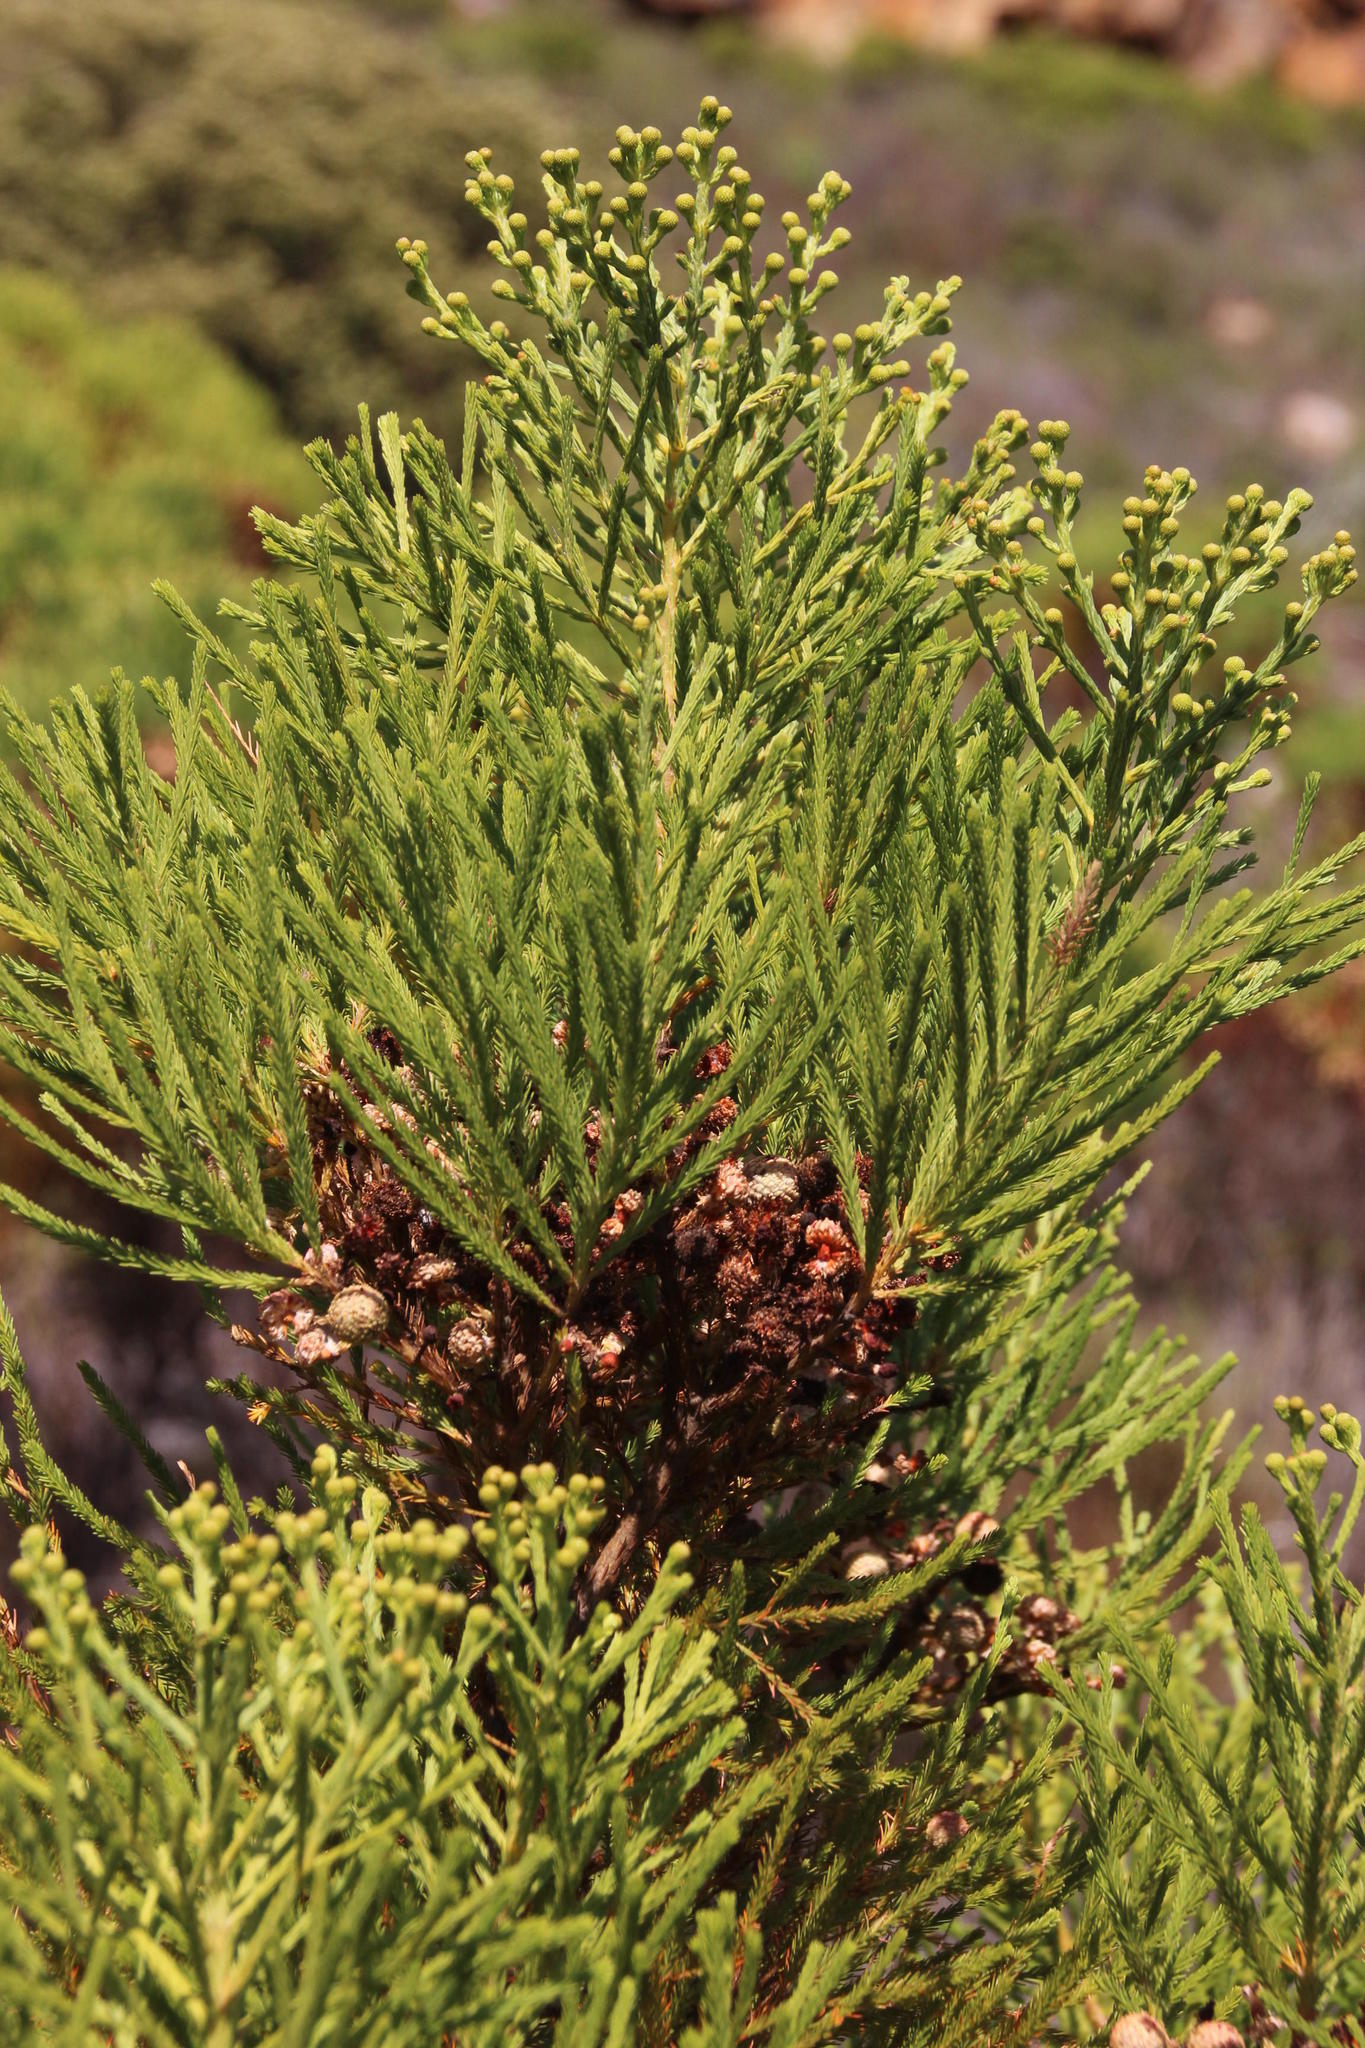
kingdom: Plantae
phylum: Tracheophyta
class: Magnoliopsida
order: Bruniales
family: Bruniaceae
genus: Berzelia
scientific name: Berzelia lanuginosa
